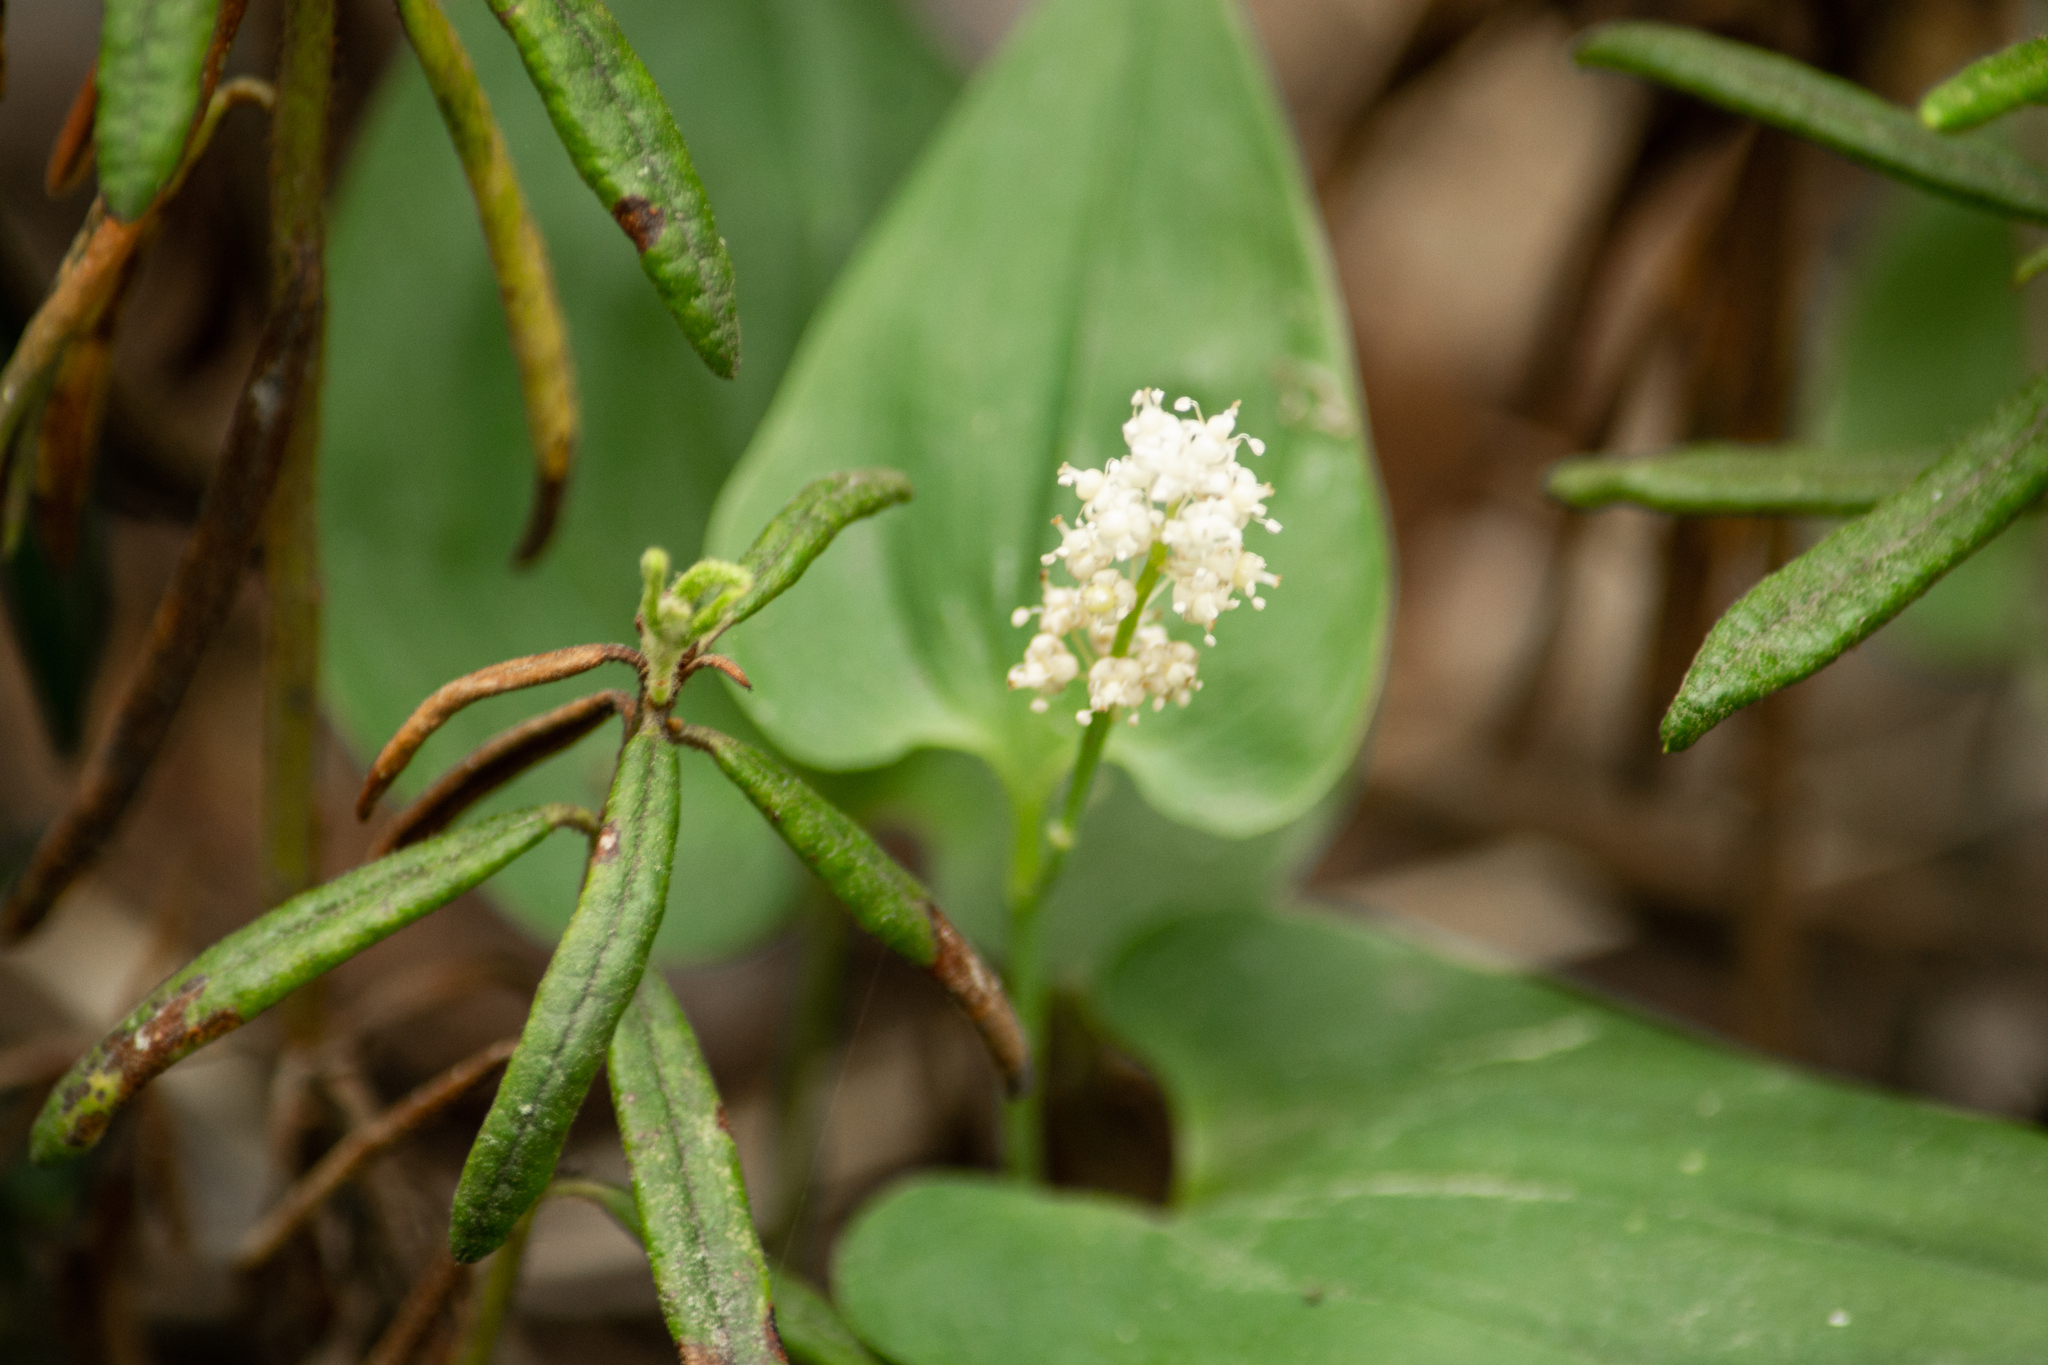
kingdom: Plantae
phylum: Tracheophyta
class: Liliopsida
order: Asparagales
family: Asparagaceae
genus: Maianthemum
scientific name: Maianthemum bifolium
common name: May lily
